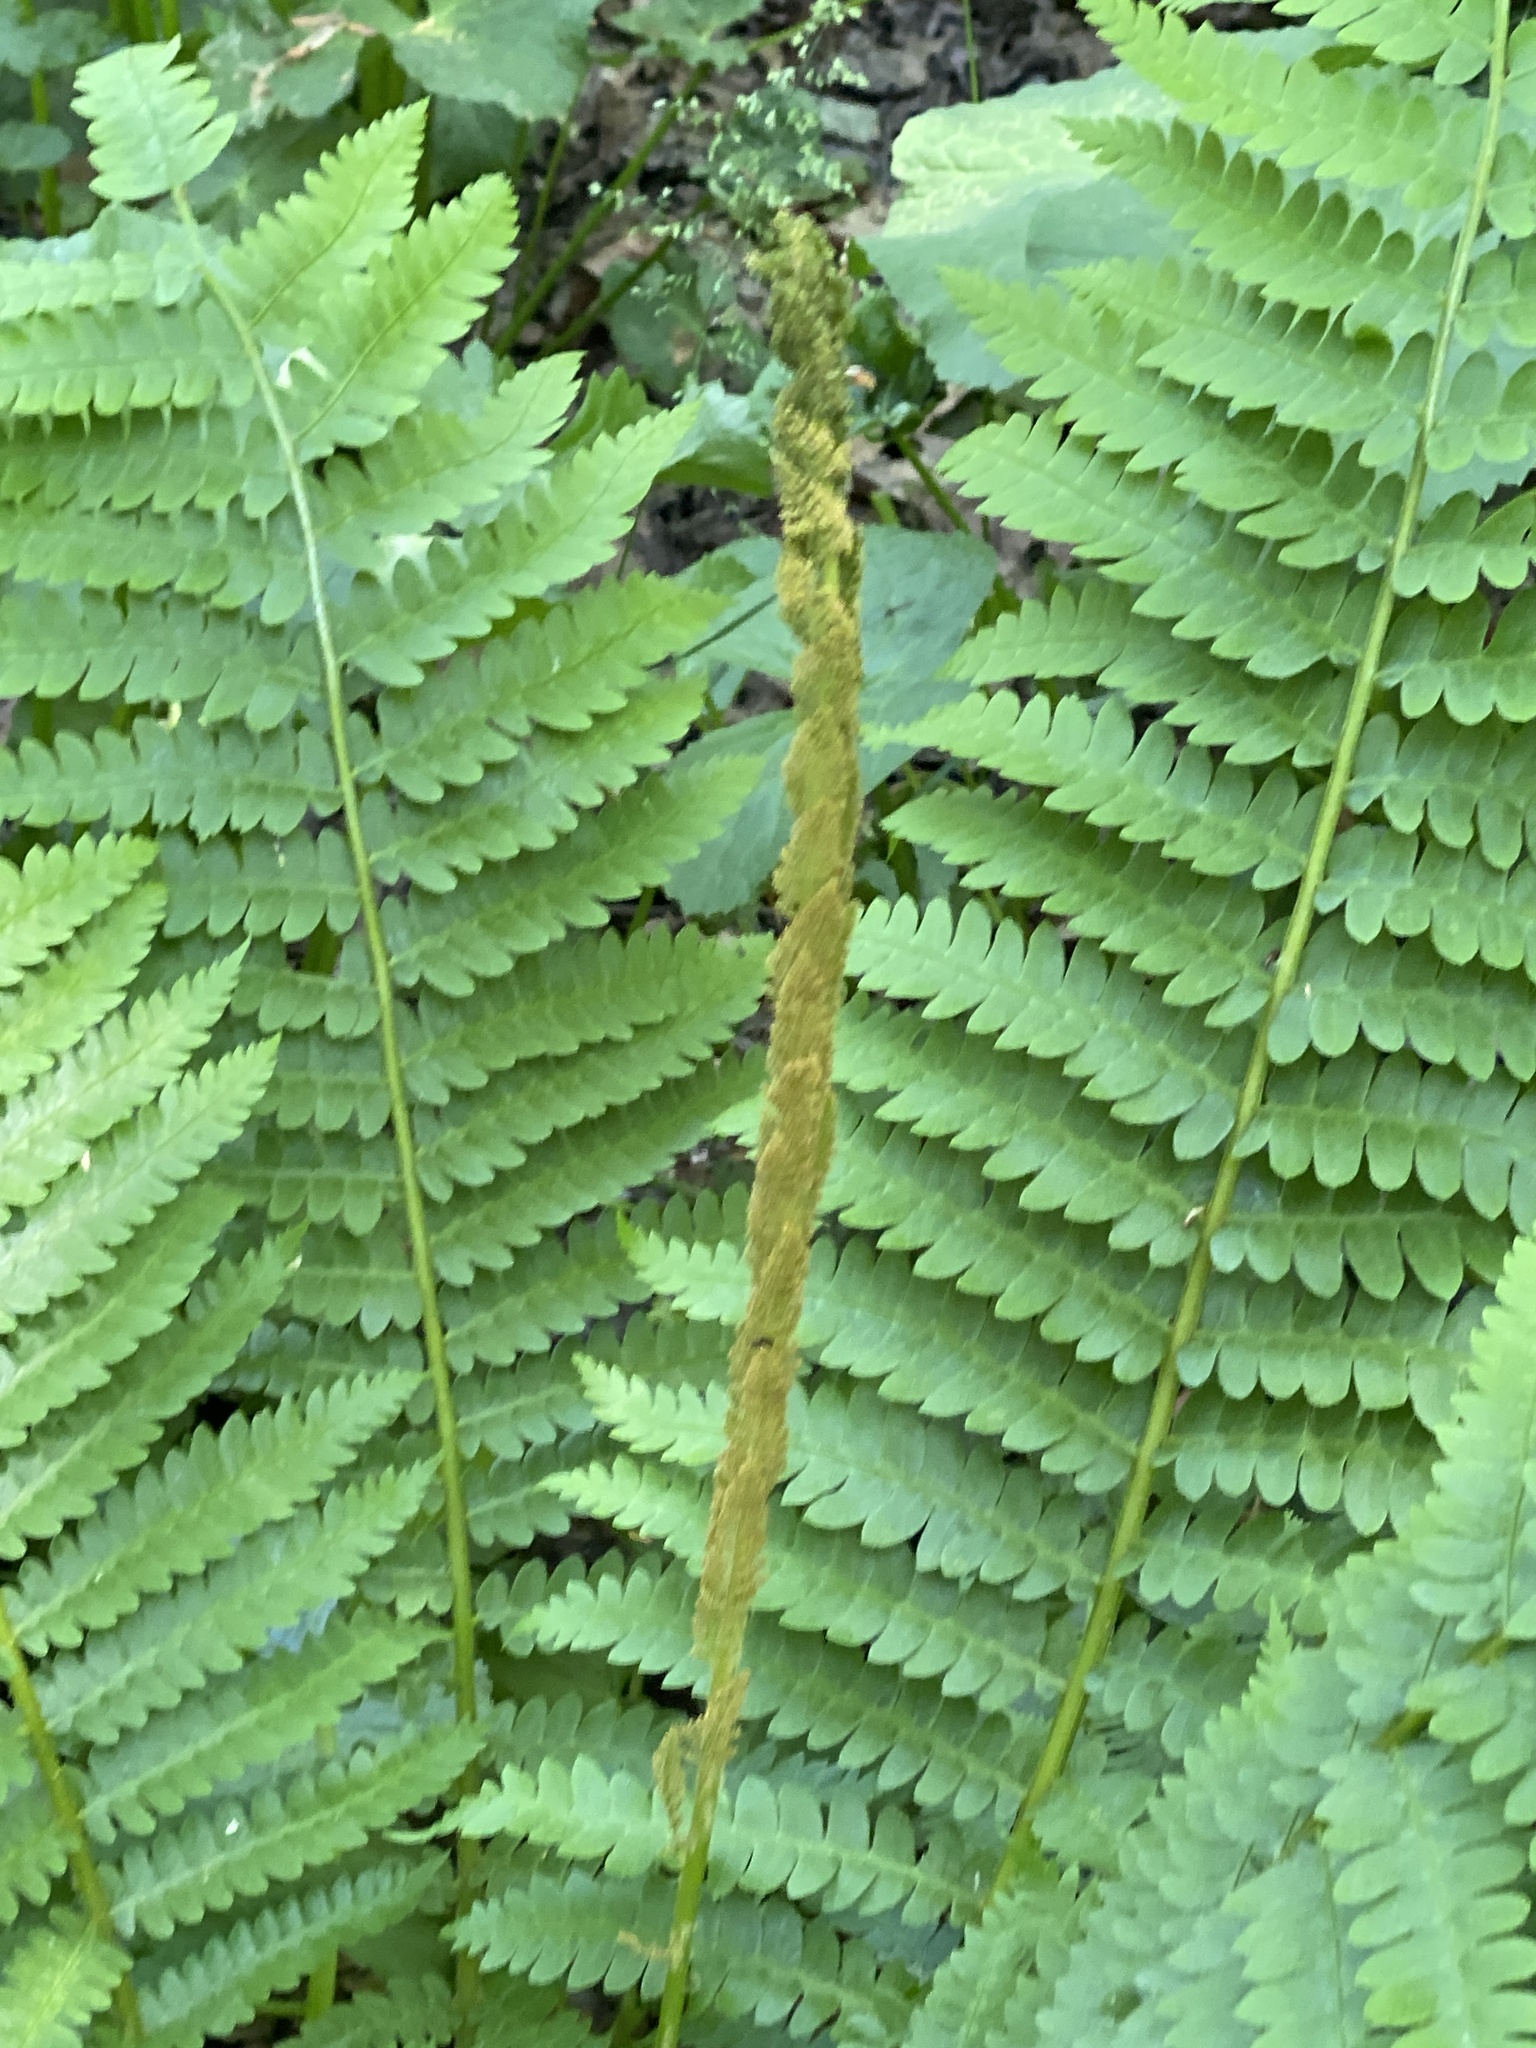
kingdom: Plantae
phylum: Tracheophyta
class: Polypodiopsida
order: Osmundales
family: Osmundaceae
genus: Osmundastrum
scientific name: Osmundastrum cinnamomeum
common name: Cinnamon fern
